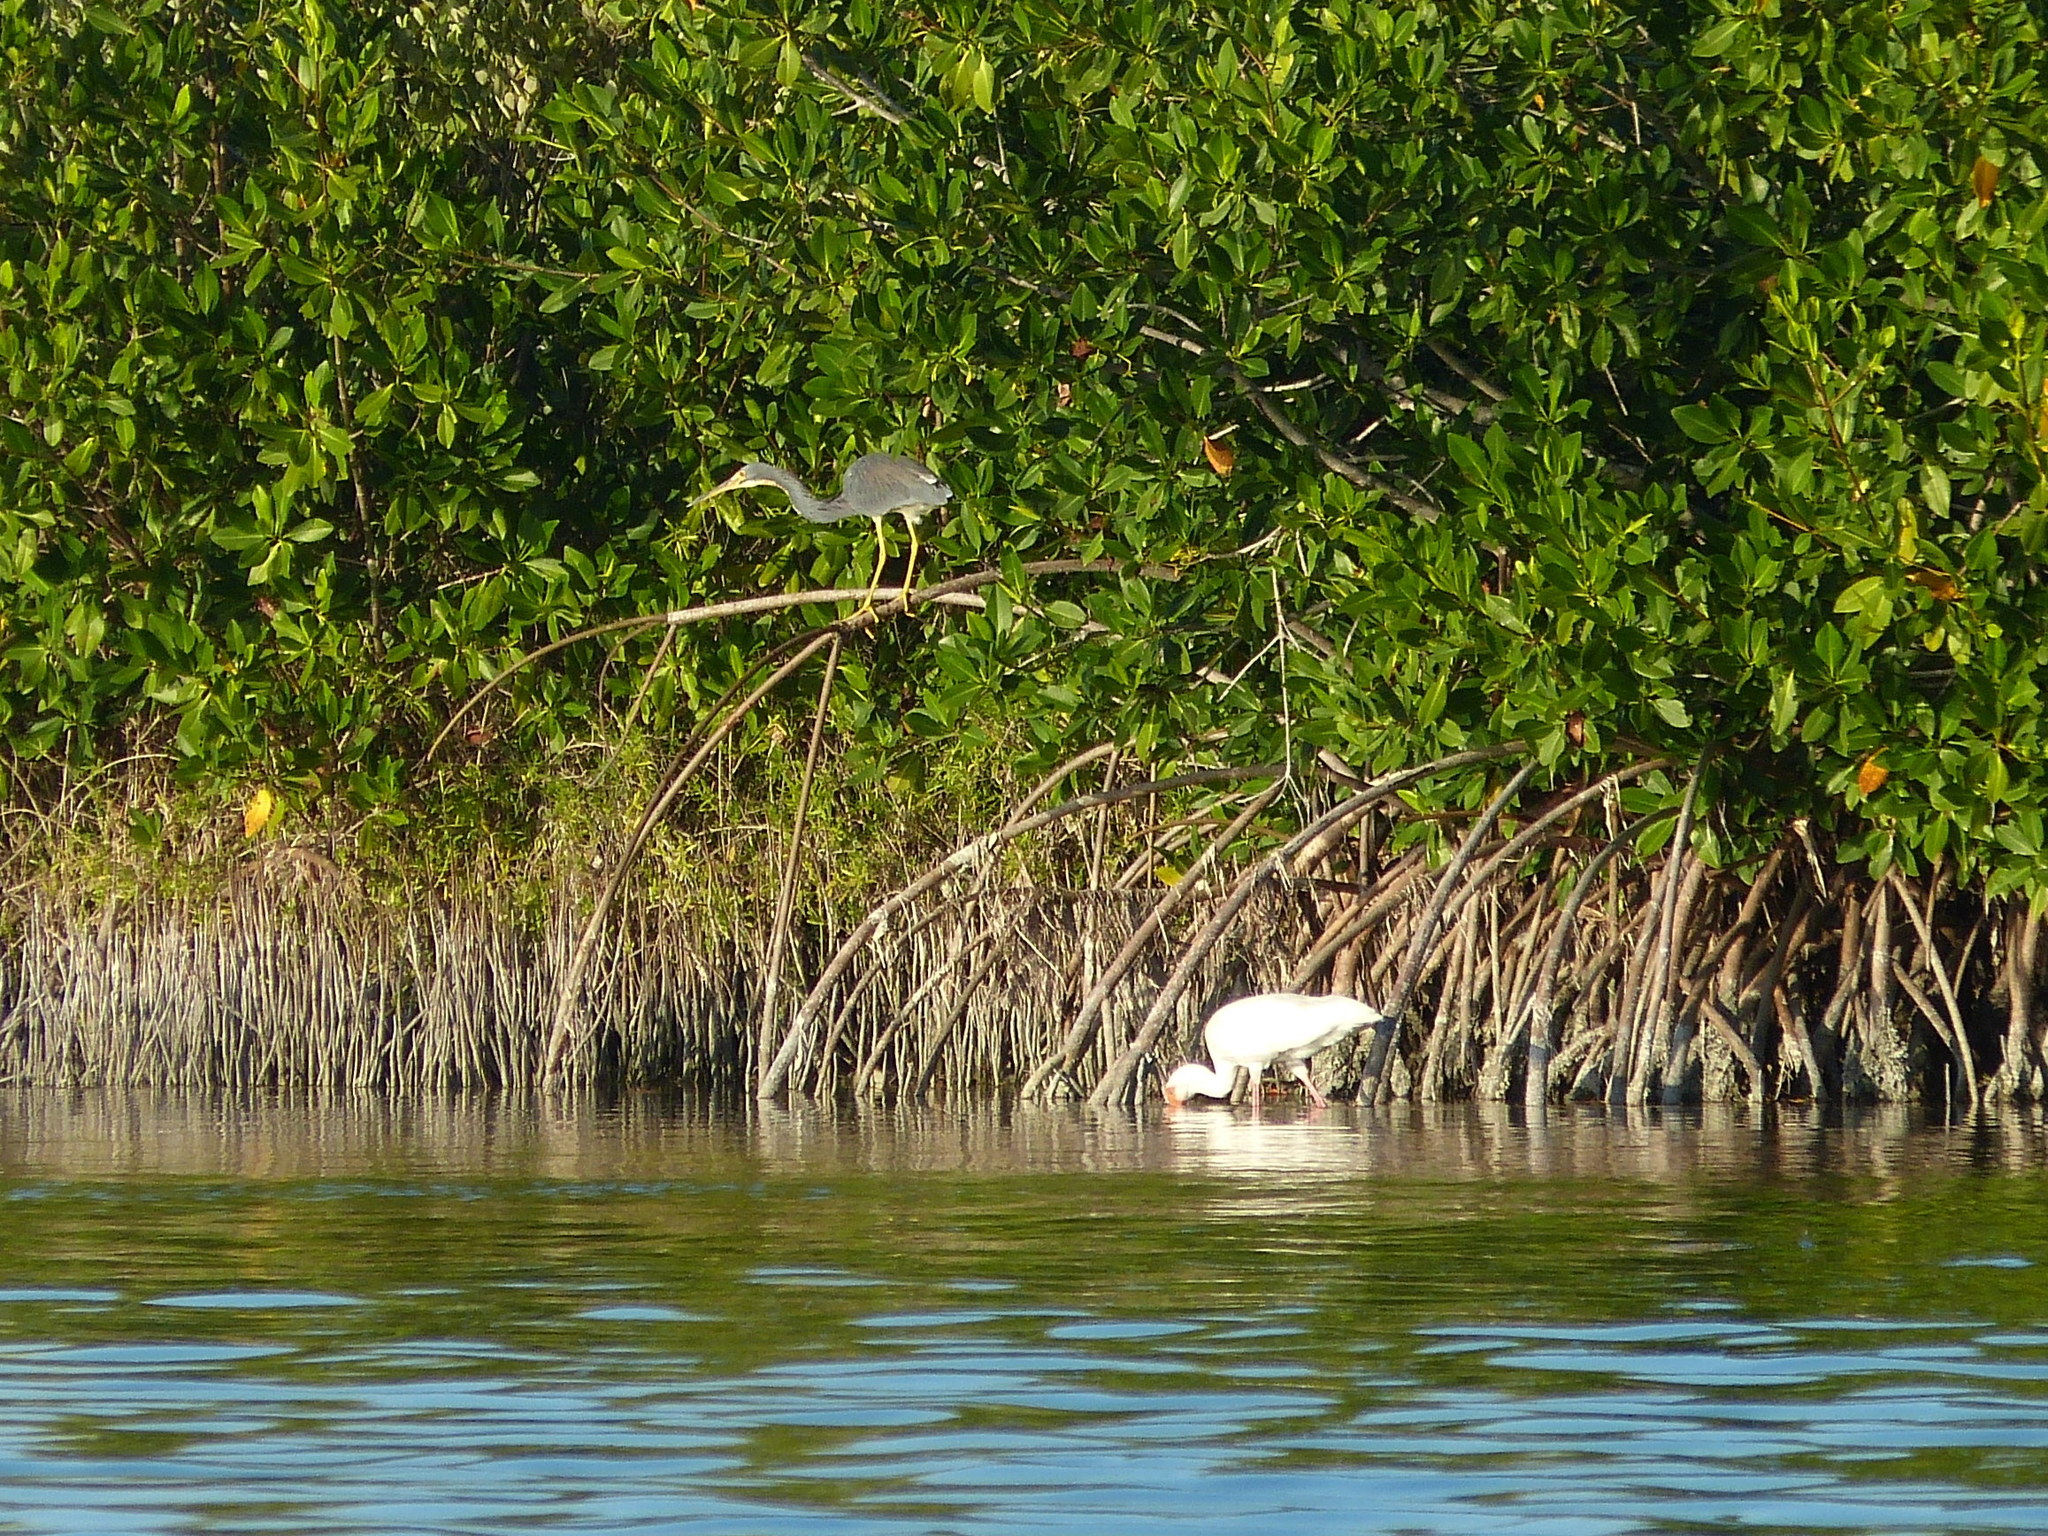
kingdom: Animalia
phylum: Chordata
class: Aves
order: Pelecaniformes
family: Ardeidae
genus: Egretta
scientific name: Egretta tricolor
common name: Tricolored heron
